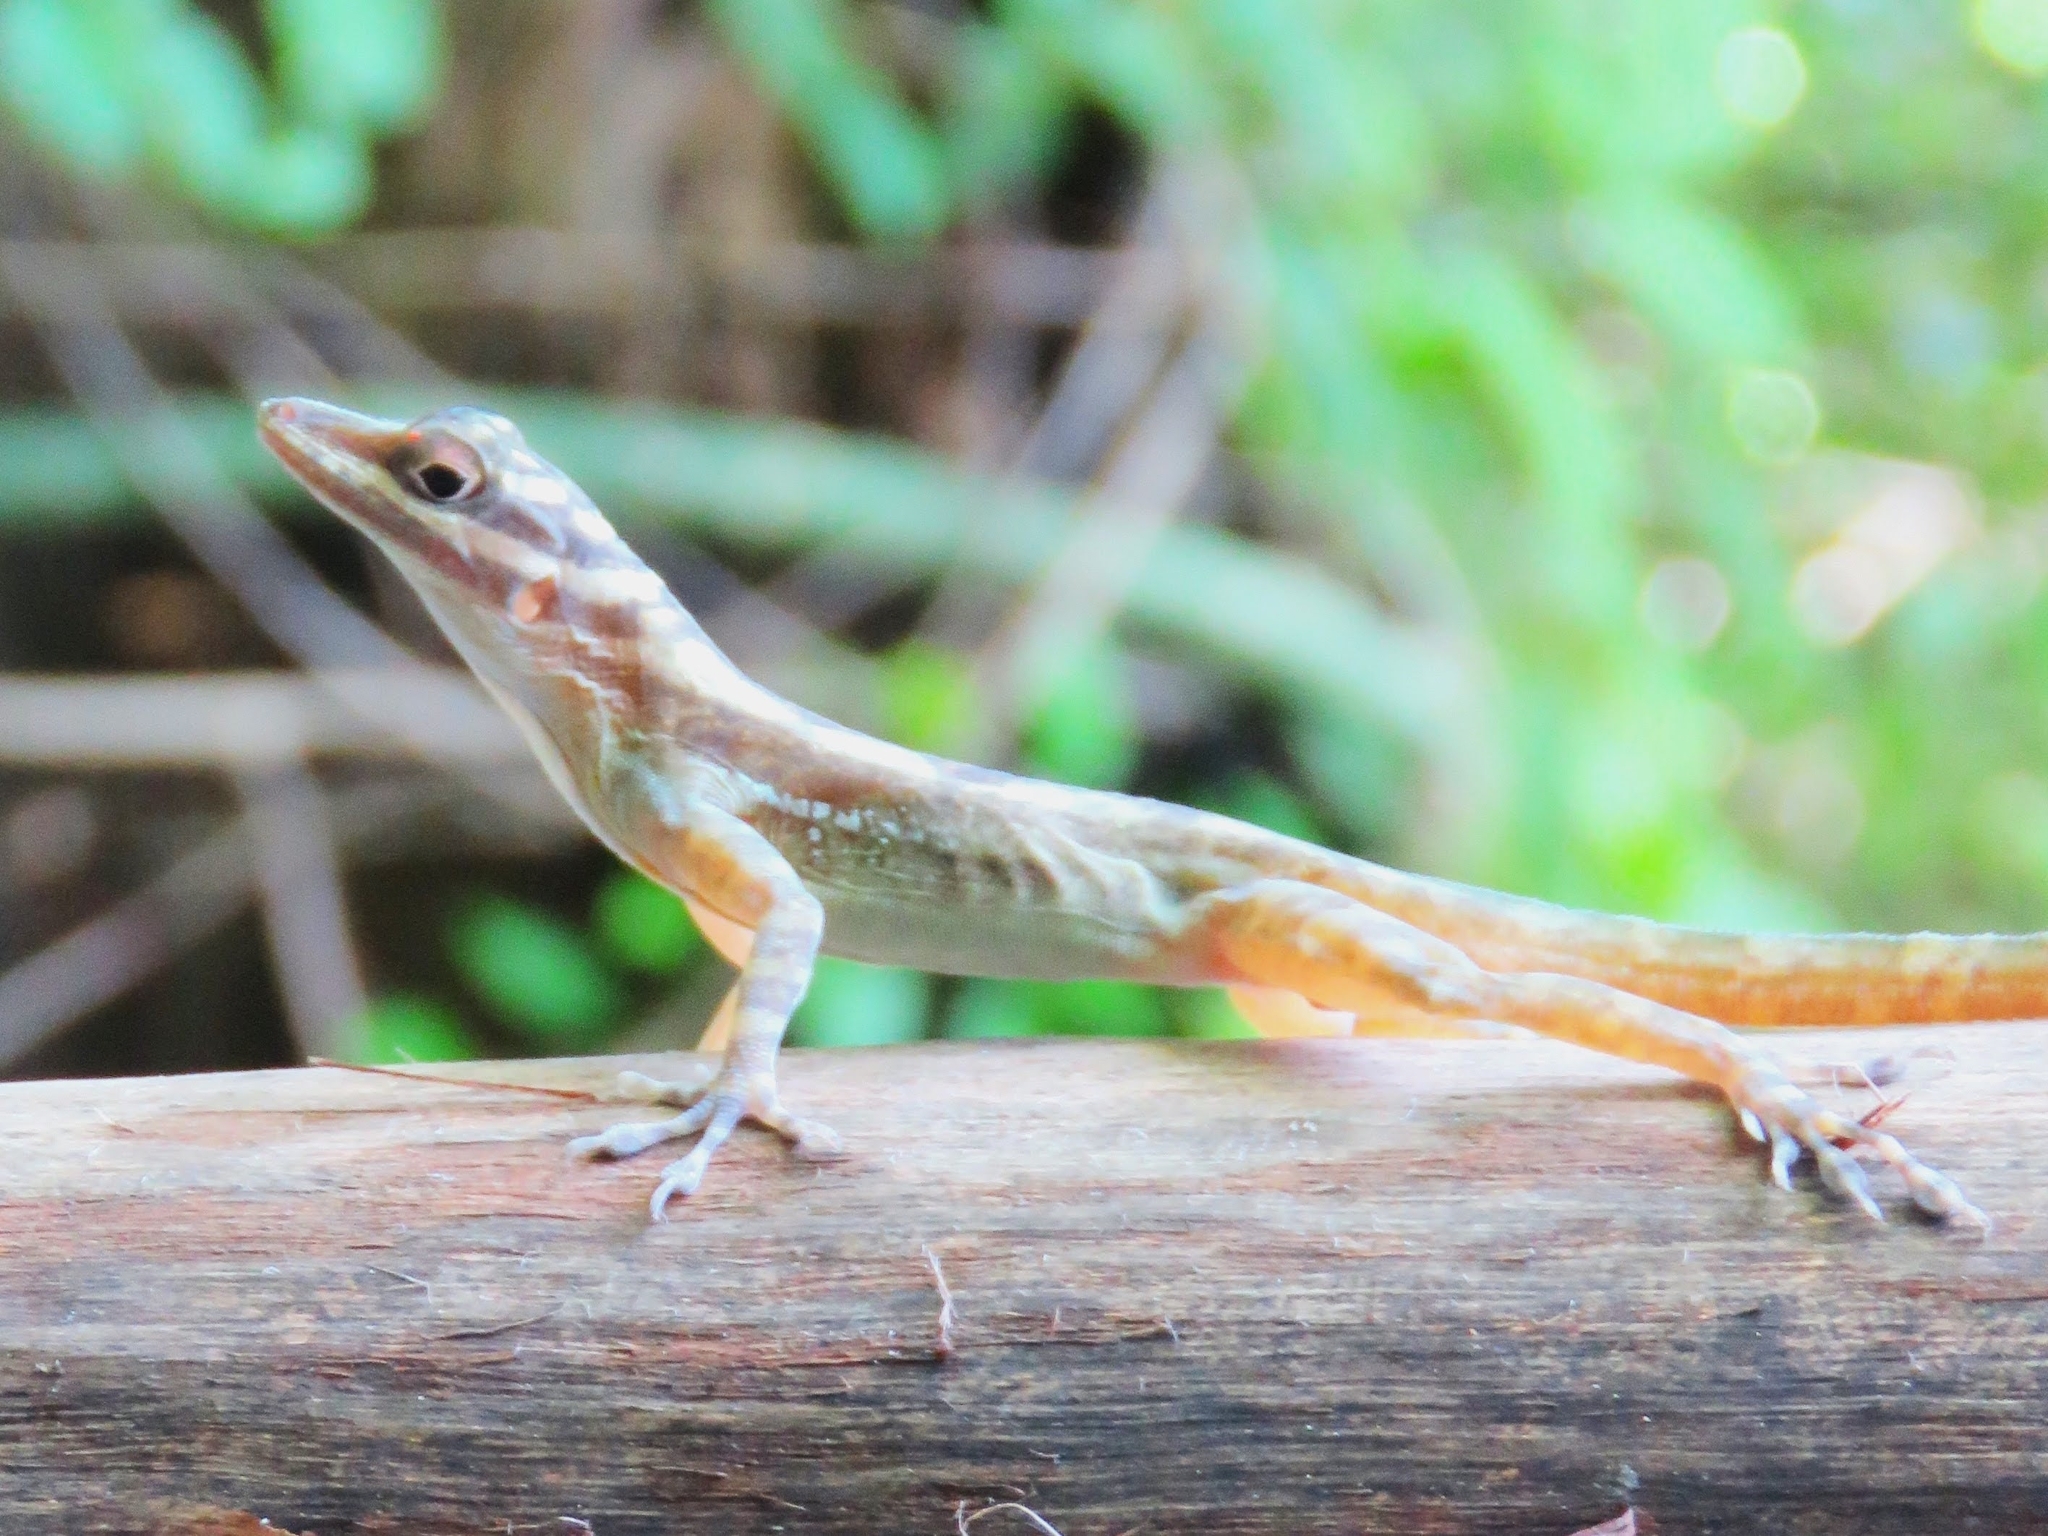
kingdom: Animalia
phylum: Chordata
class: Squamata
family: Dactyloidae
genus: Anolis
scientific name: Anolis lucius
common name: Cave anole
